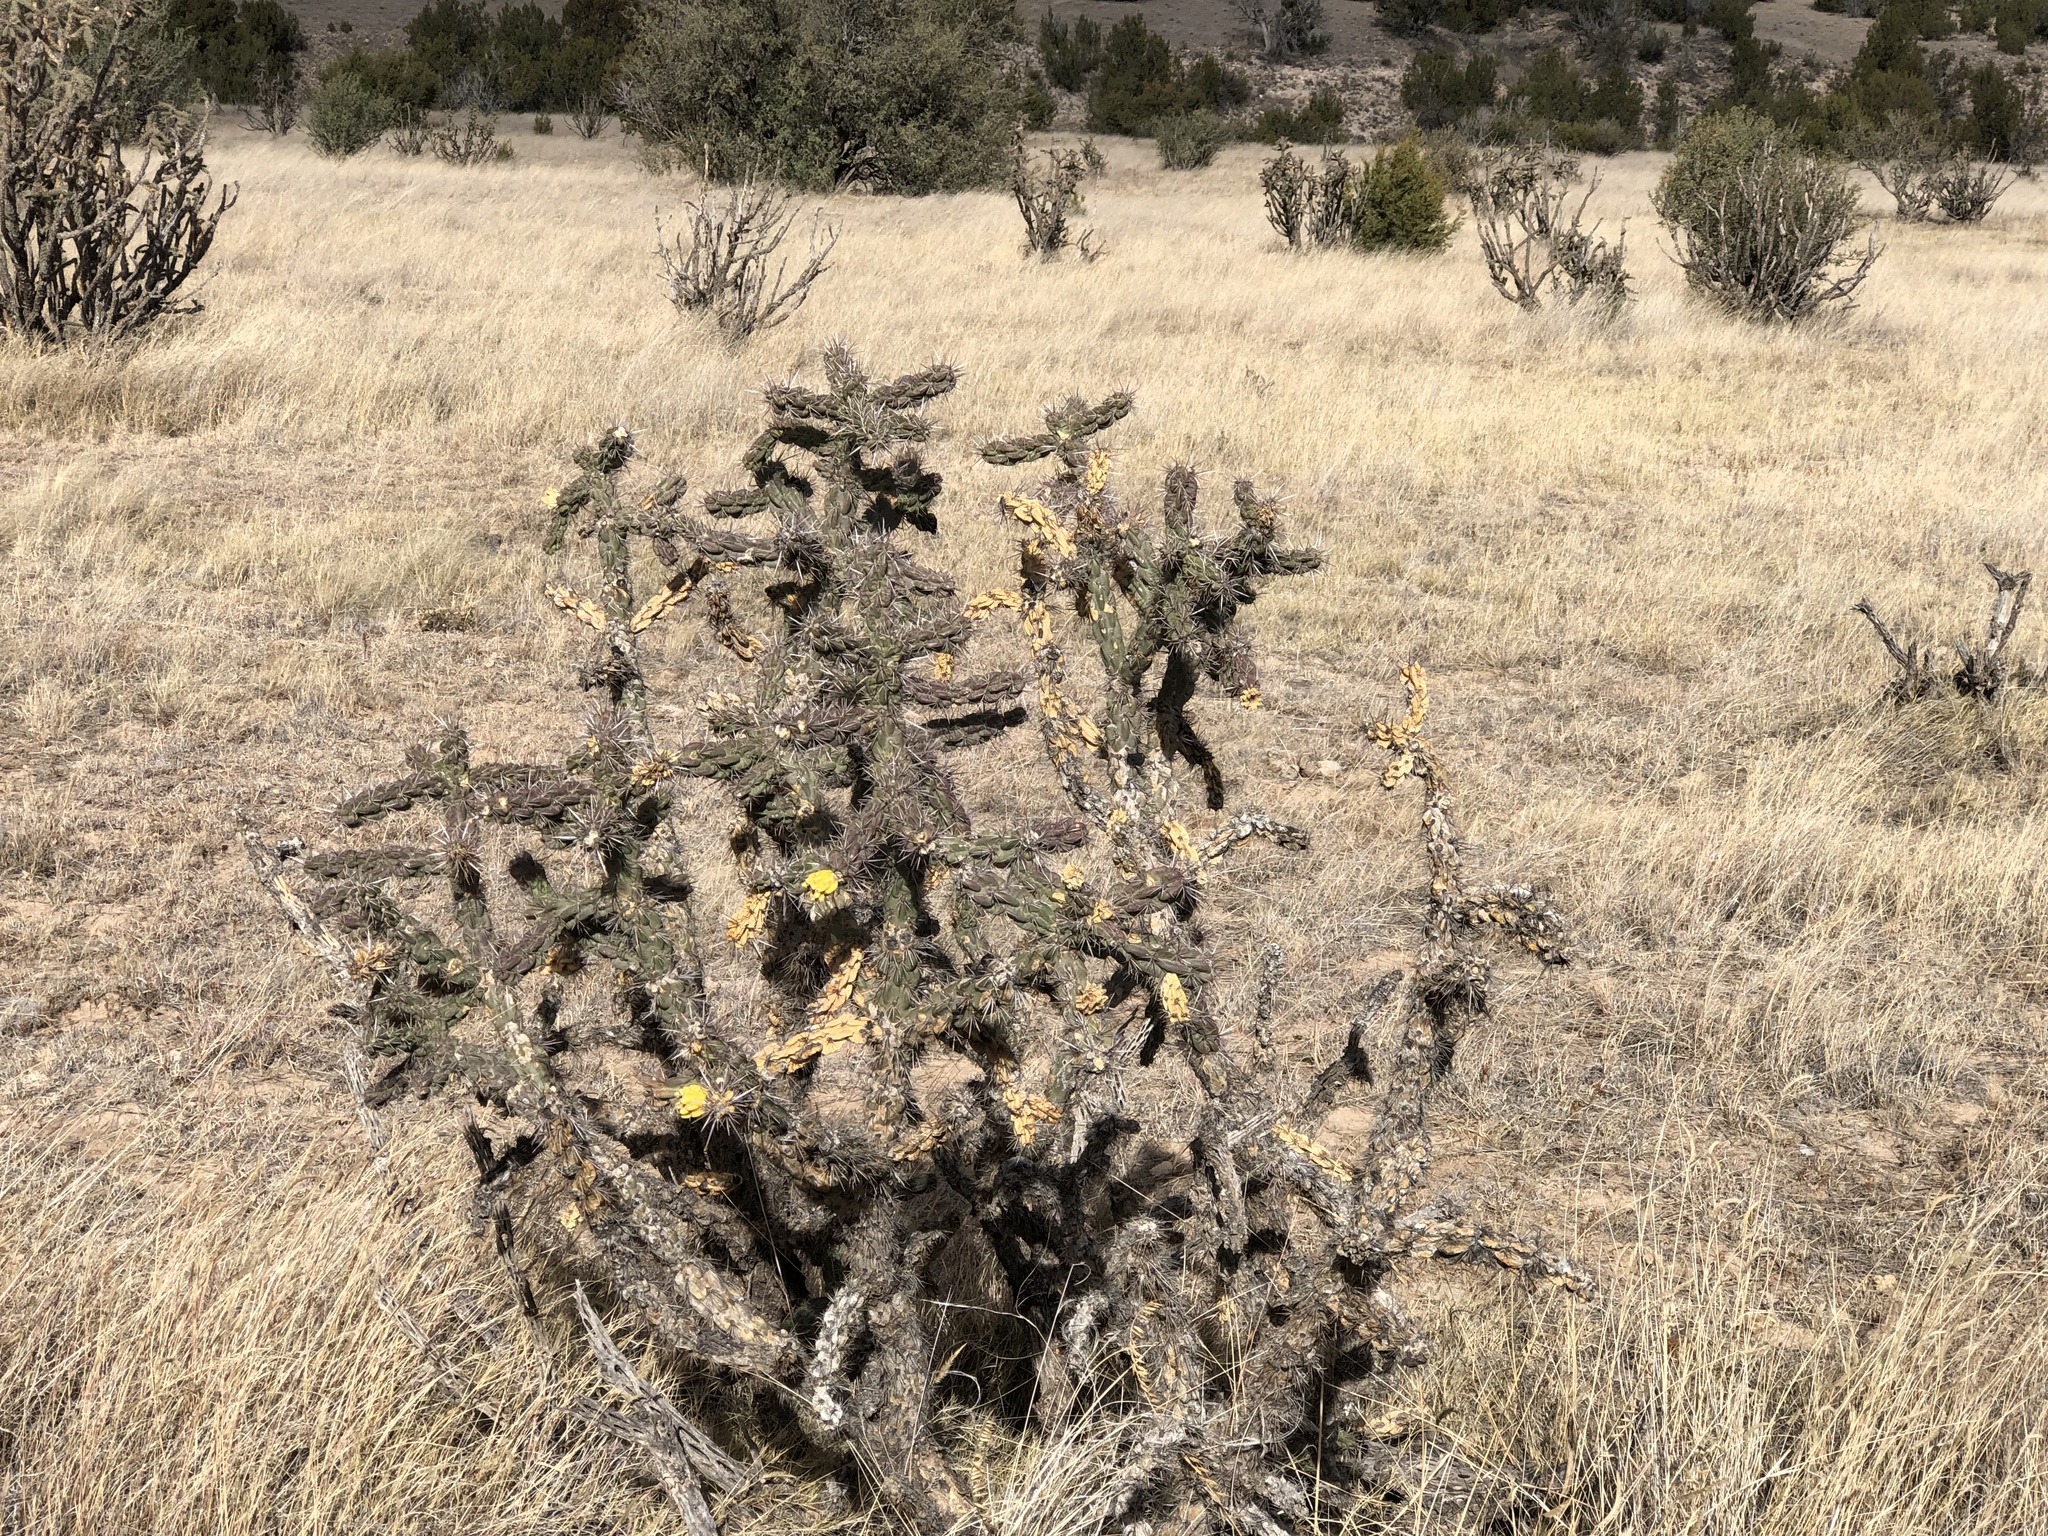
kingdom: Plantae
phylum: Tracheophyta
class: Magnoliopsida
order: Caryophyllales
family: Cactaceae
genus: Cylindropuntia
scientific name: Cylindropuntia imbricata
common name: Candelabrum cactus
